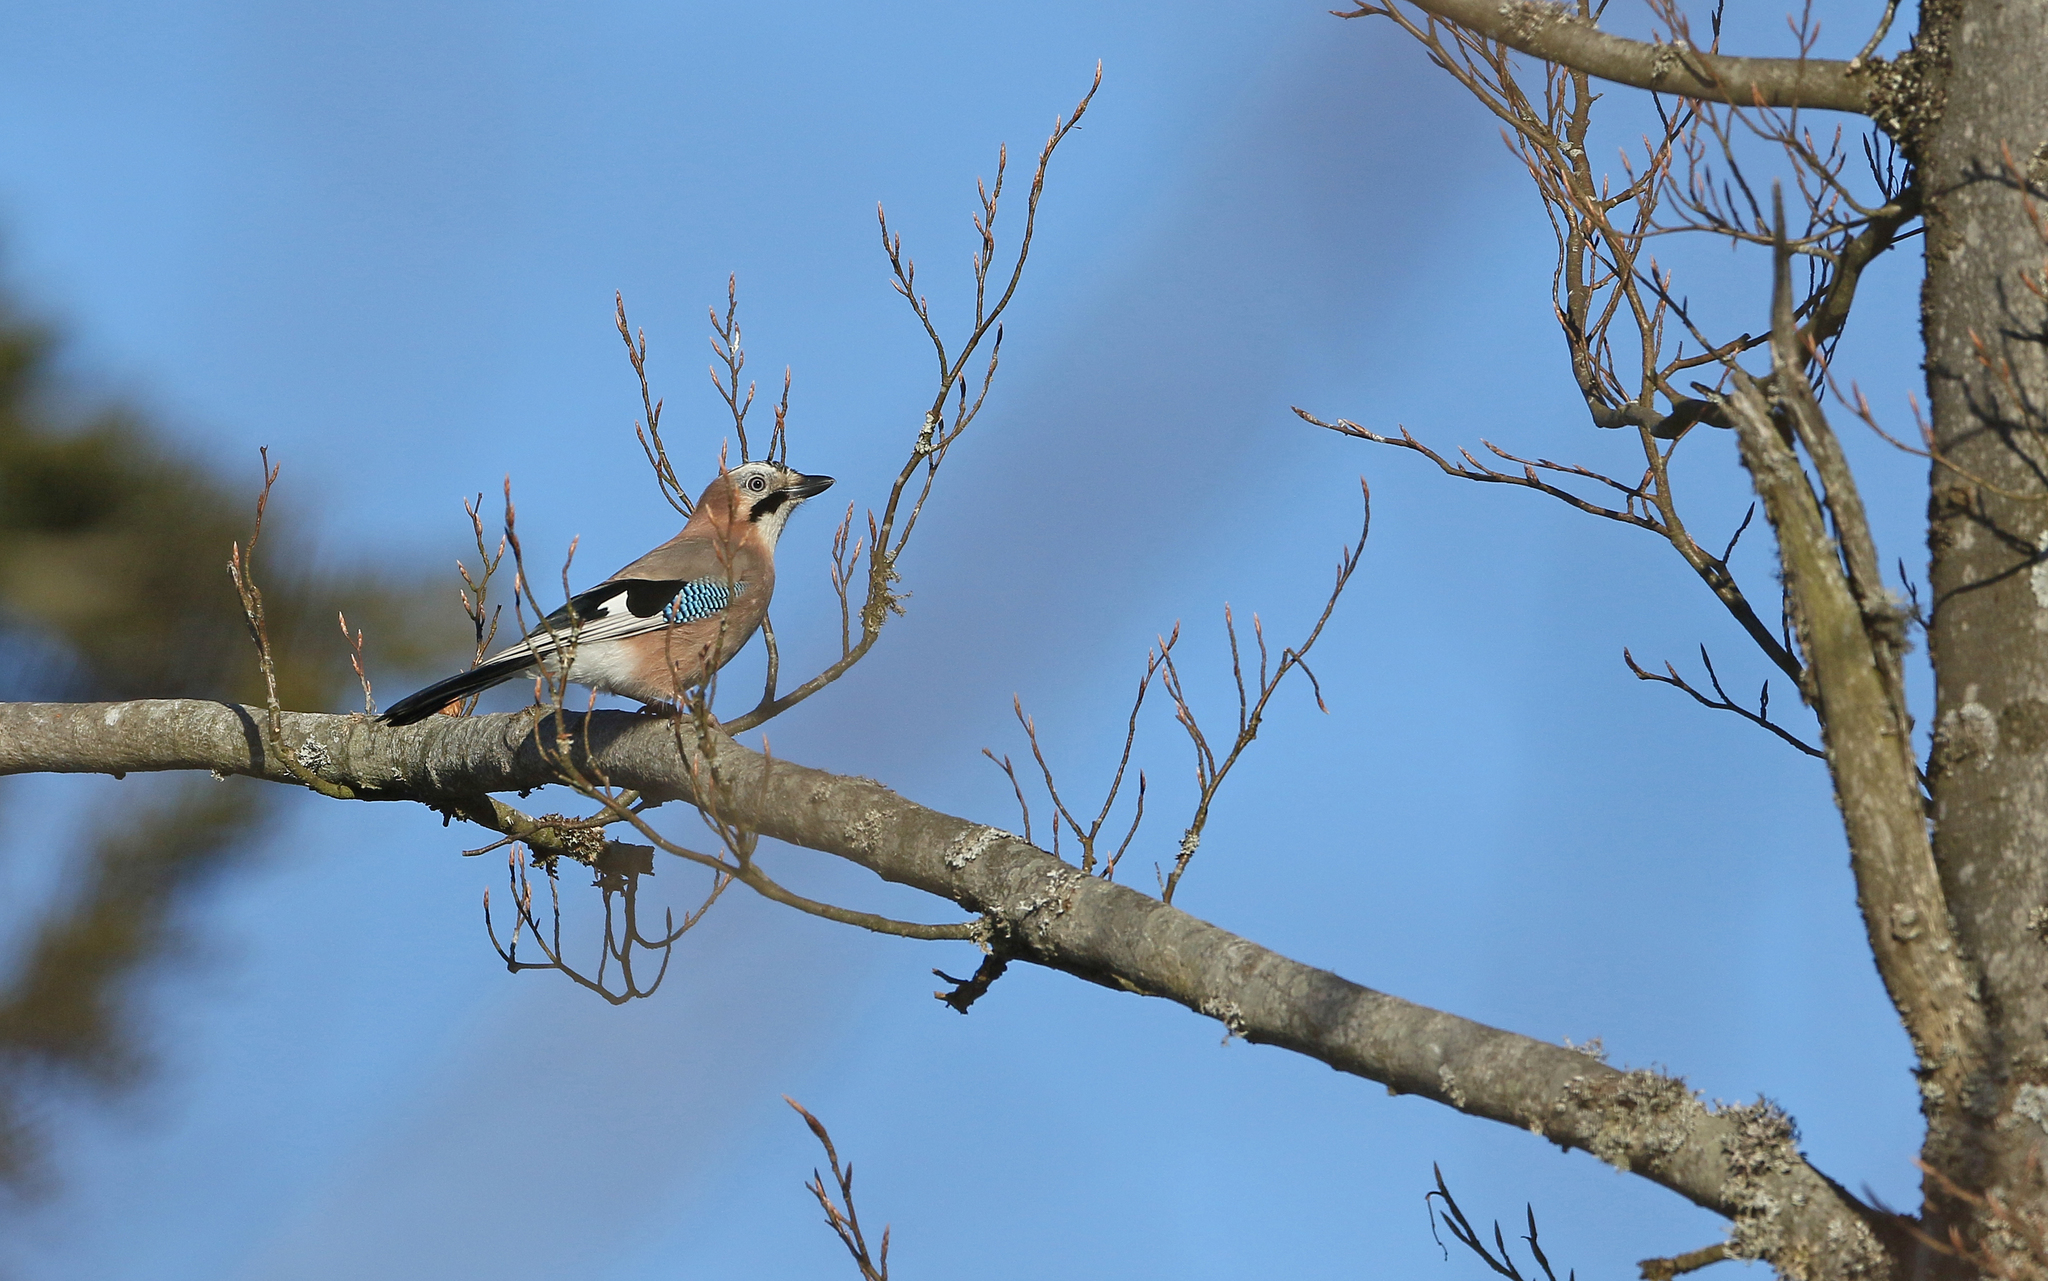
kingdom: Animalia
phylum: Chordata
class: Aves
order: Passeriformes
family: Corvidae
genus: Garrulus
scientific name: Garrulus glandarius
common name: Eurasian jay
